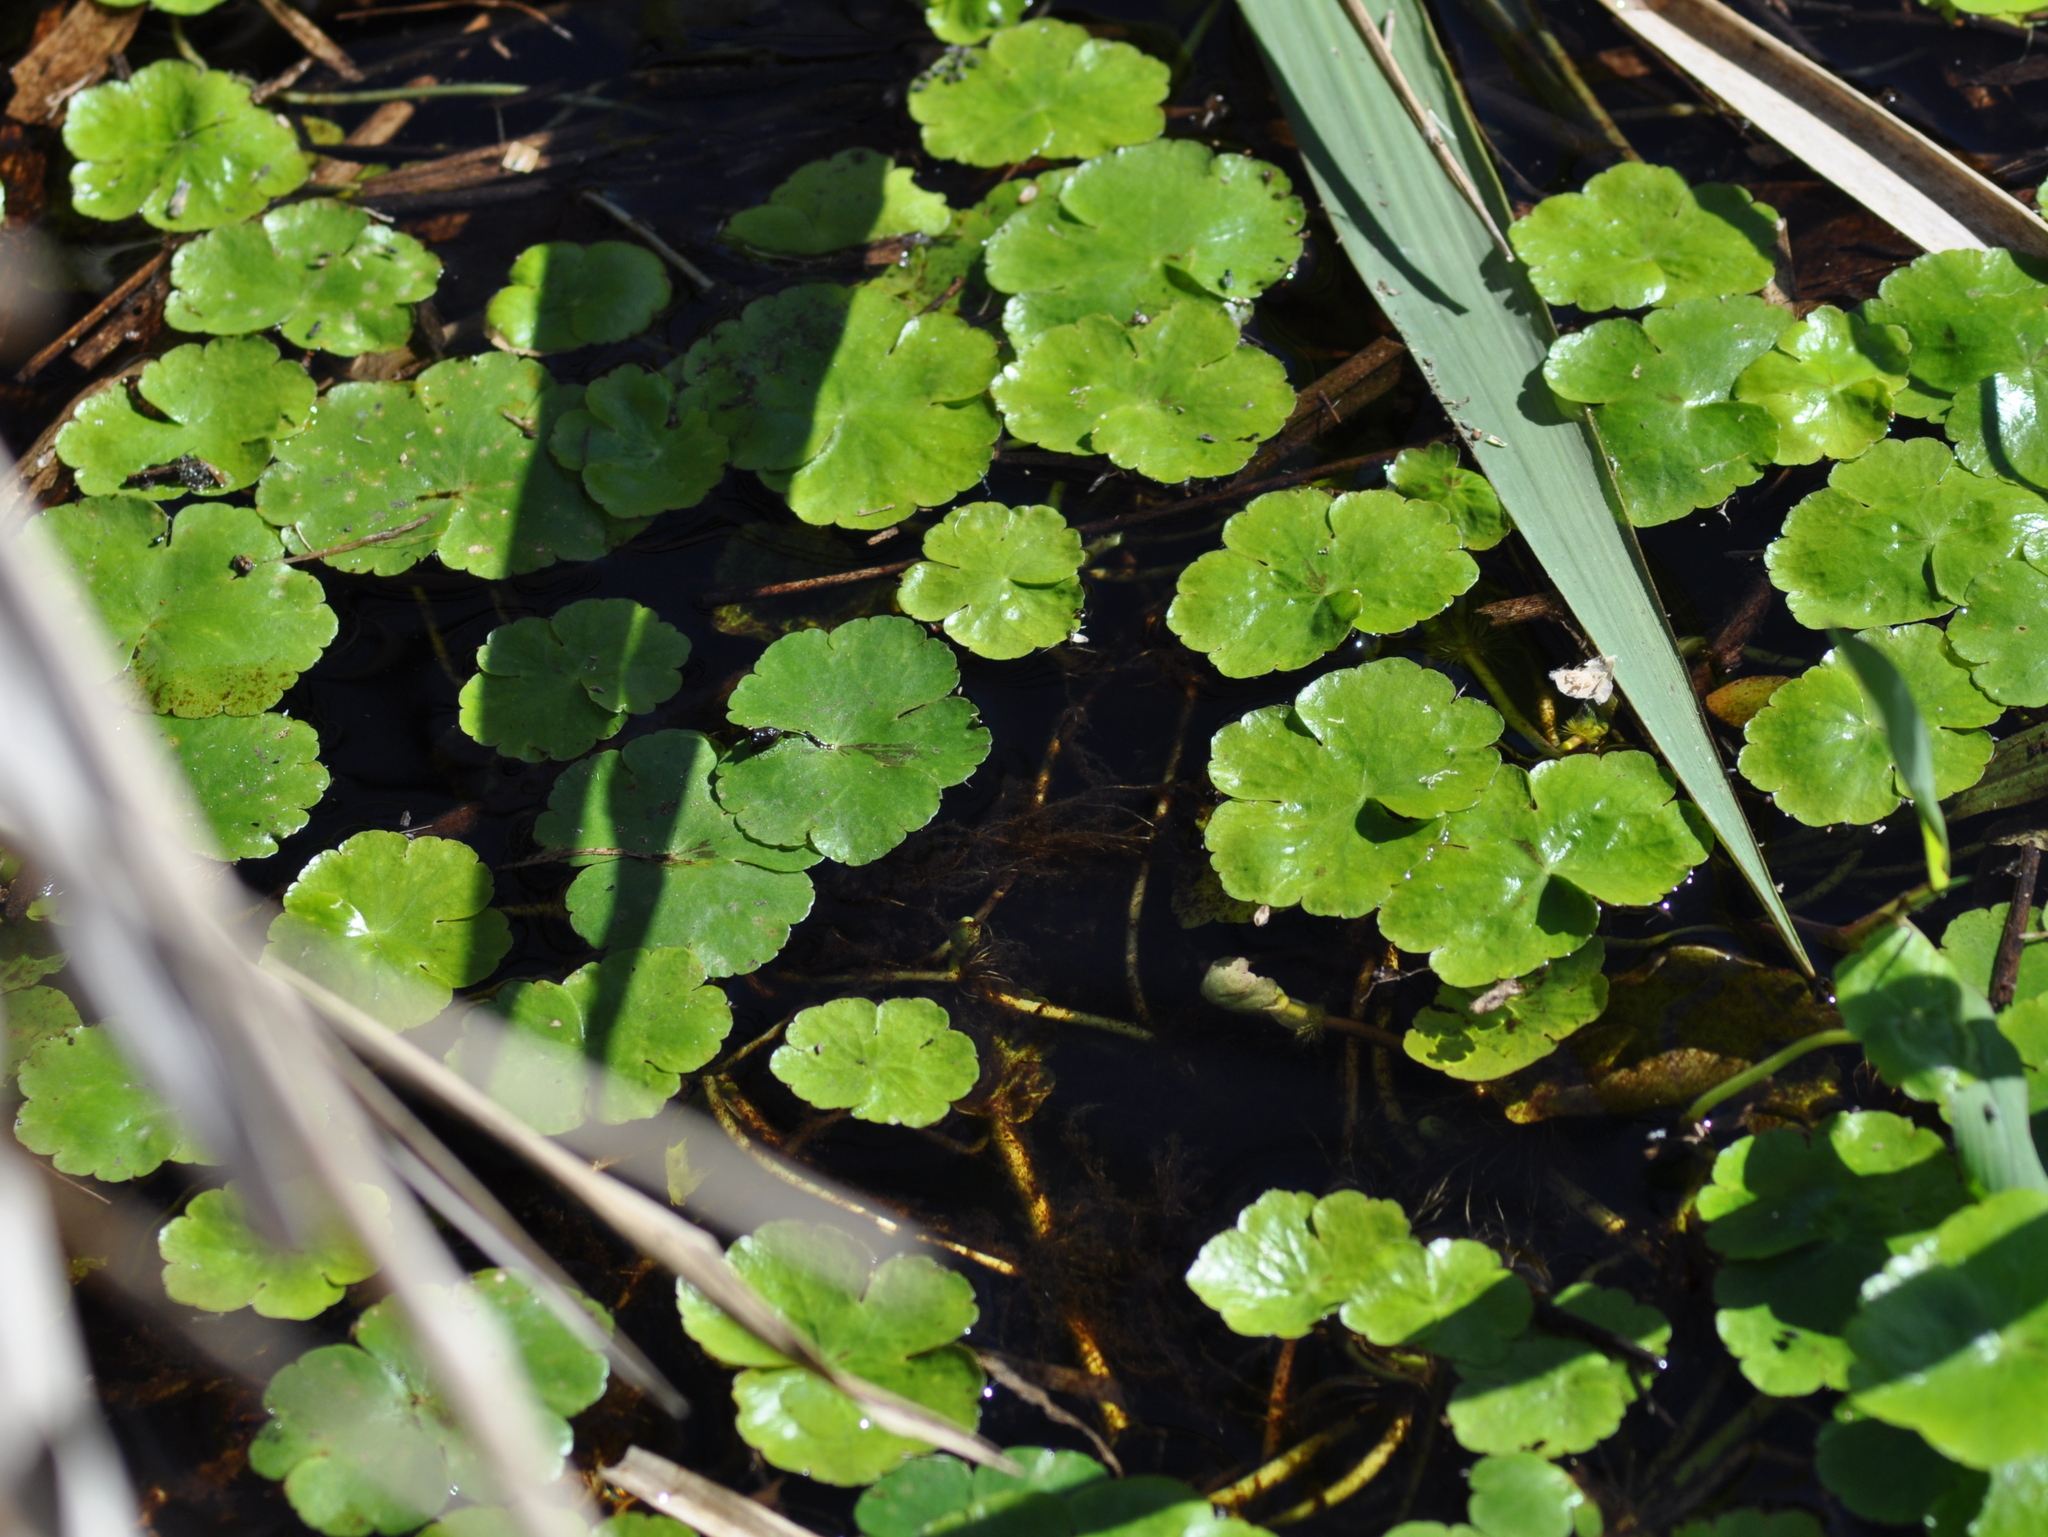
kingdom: Plantae
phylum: Tracheophyta
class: Magnoliopsida
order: Apiales
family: Araliaceae
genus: Hydrocotyle
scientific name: Hydrocotyle ranunculoides
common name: Floating pennywort
